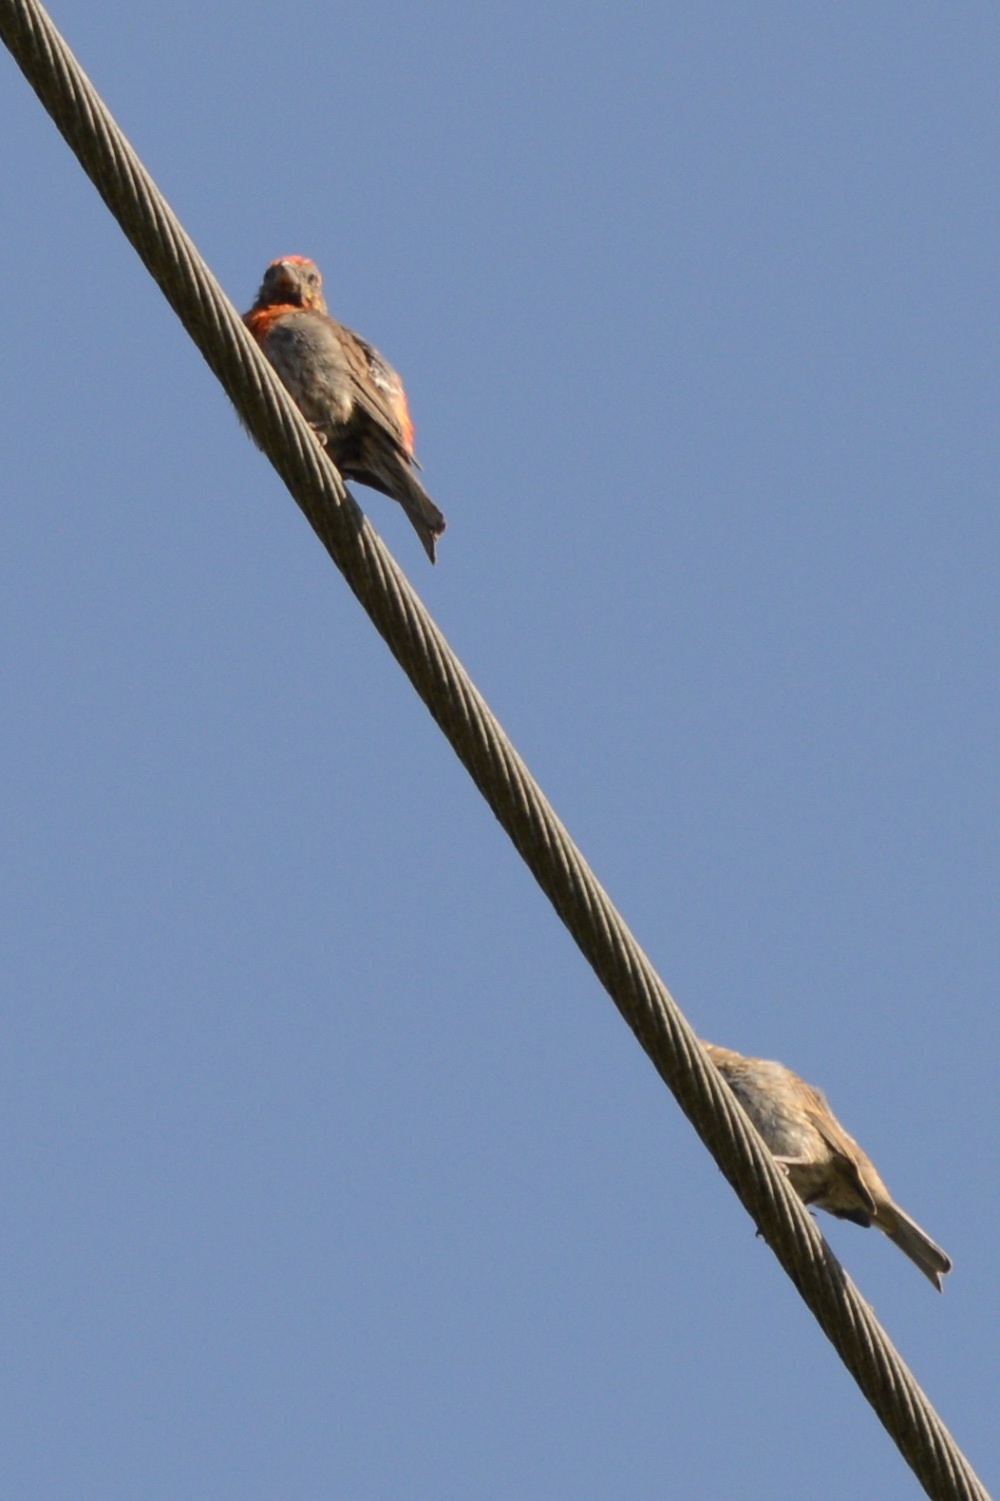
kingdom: Animalia
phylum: Chordata
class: Aves
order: Passeriformes
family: Fringillidae
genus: Haemorhous
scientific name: Haemorhous mexicanus
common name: House finch
